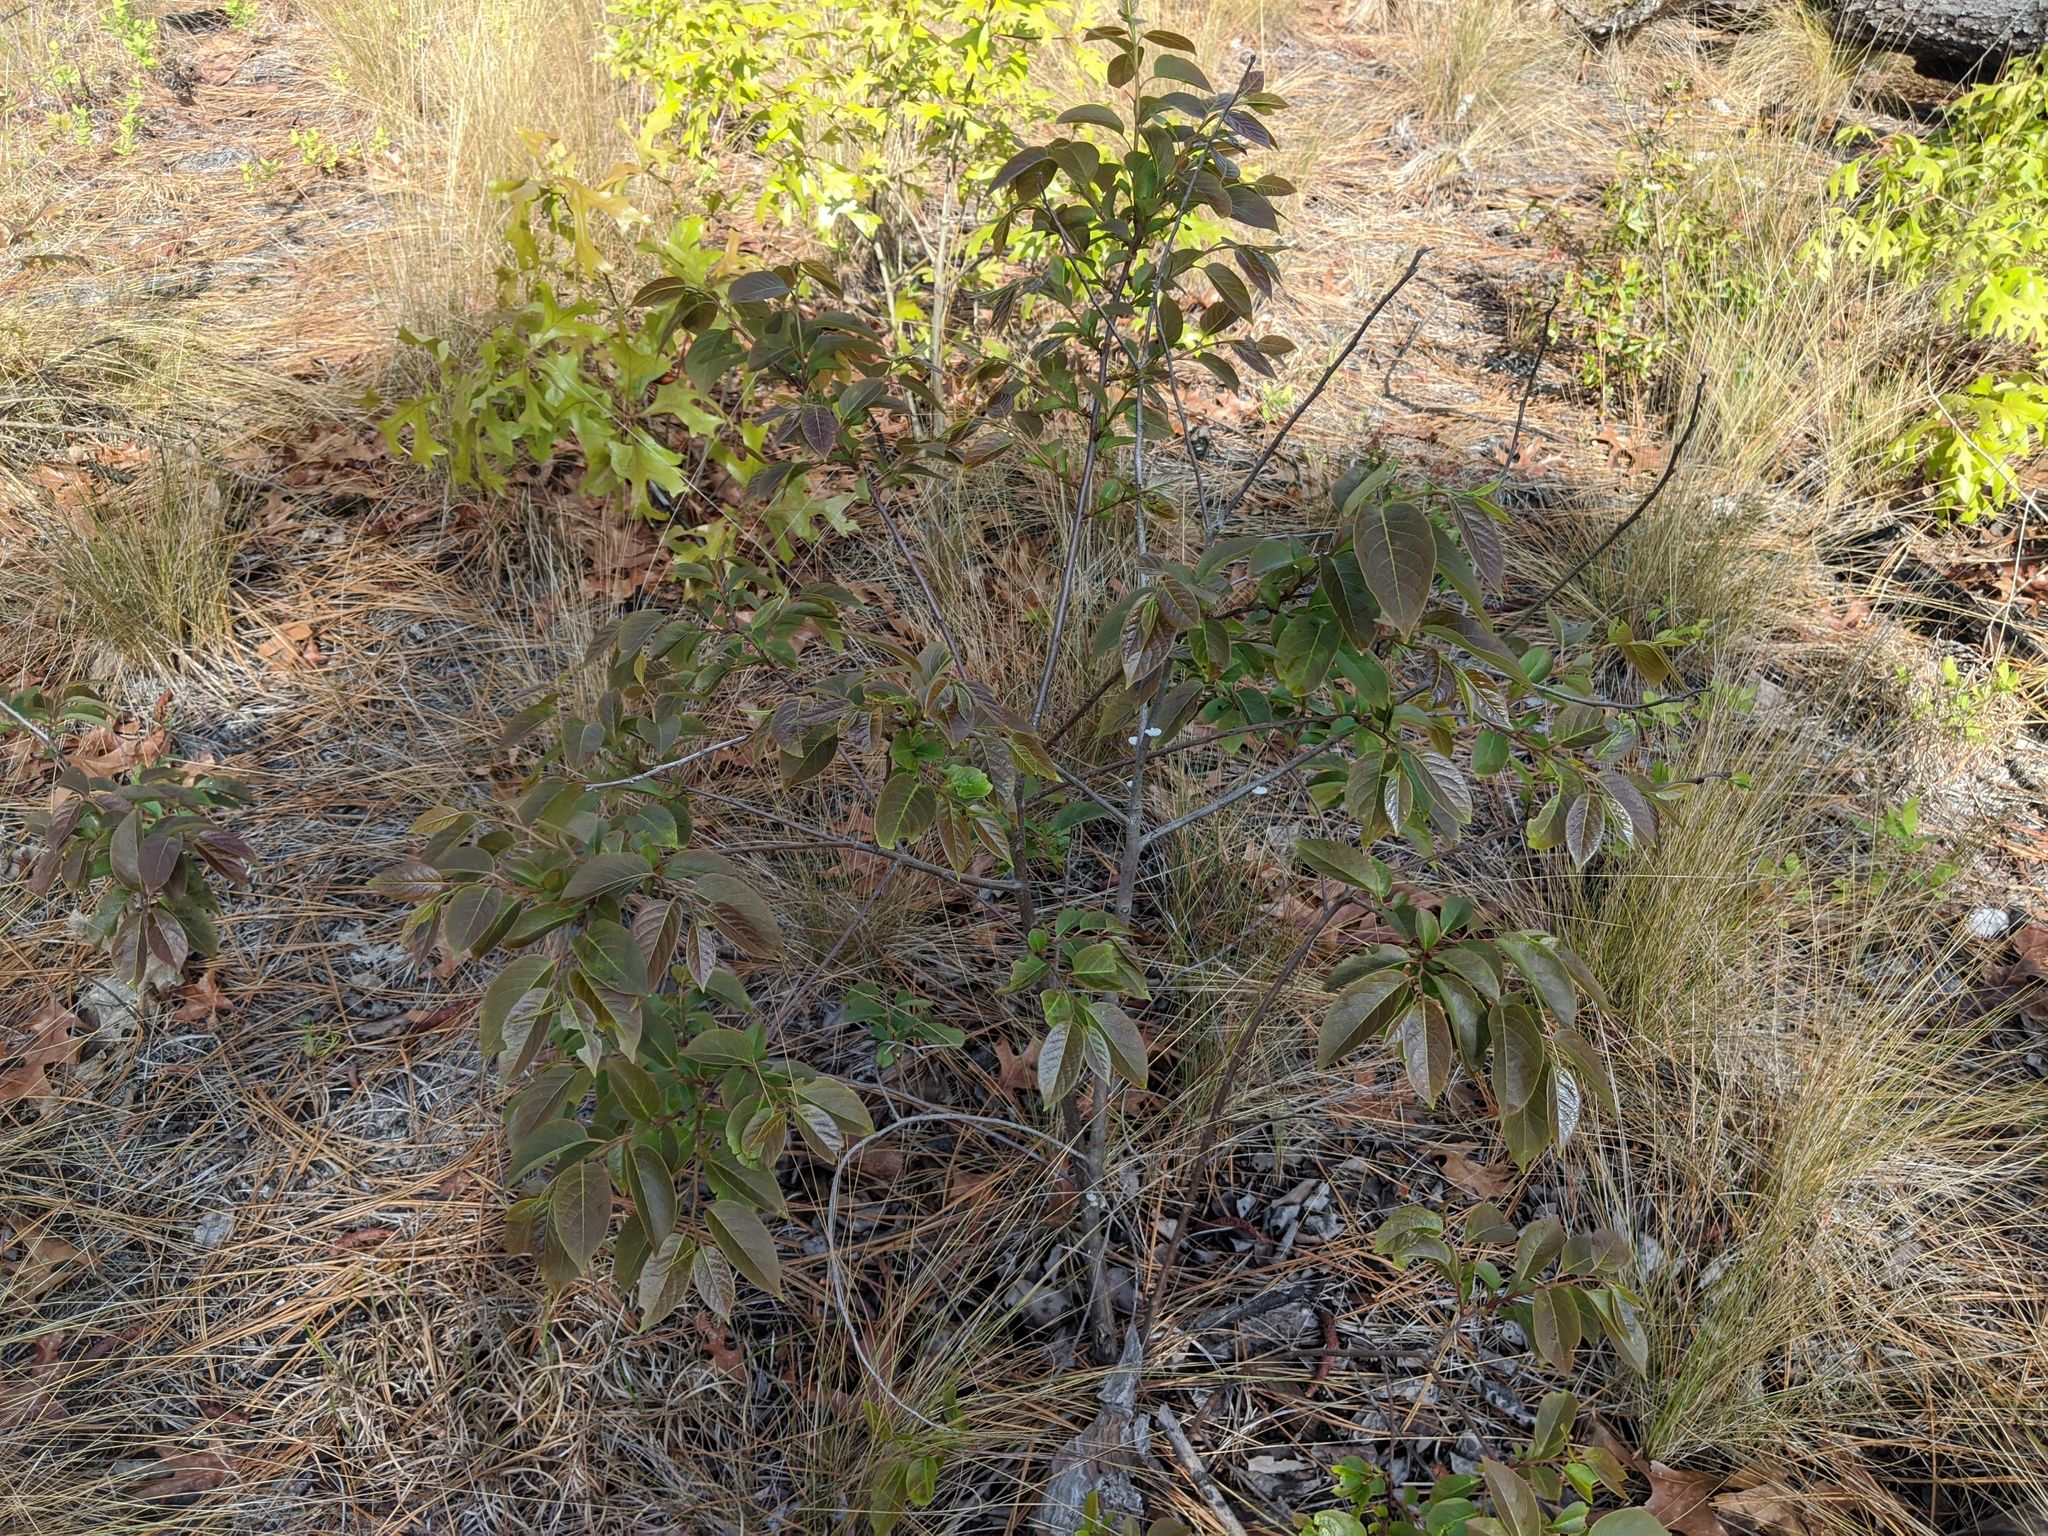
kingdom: Plantae
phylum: Tracheophyta
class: Magnoliopsida
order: Ericales
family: Ebenaceae
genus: Diospyros
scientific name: Diospyros virginiana
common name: Persimmon
